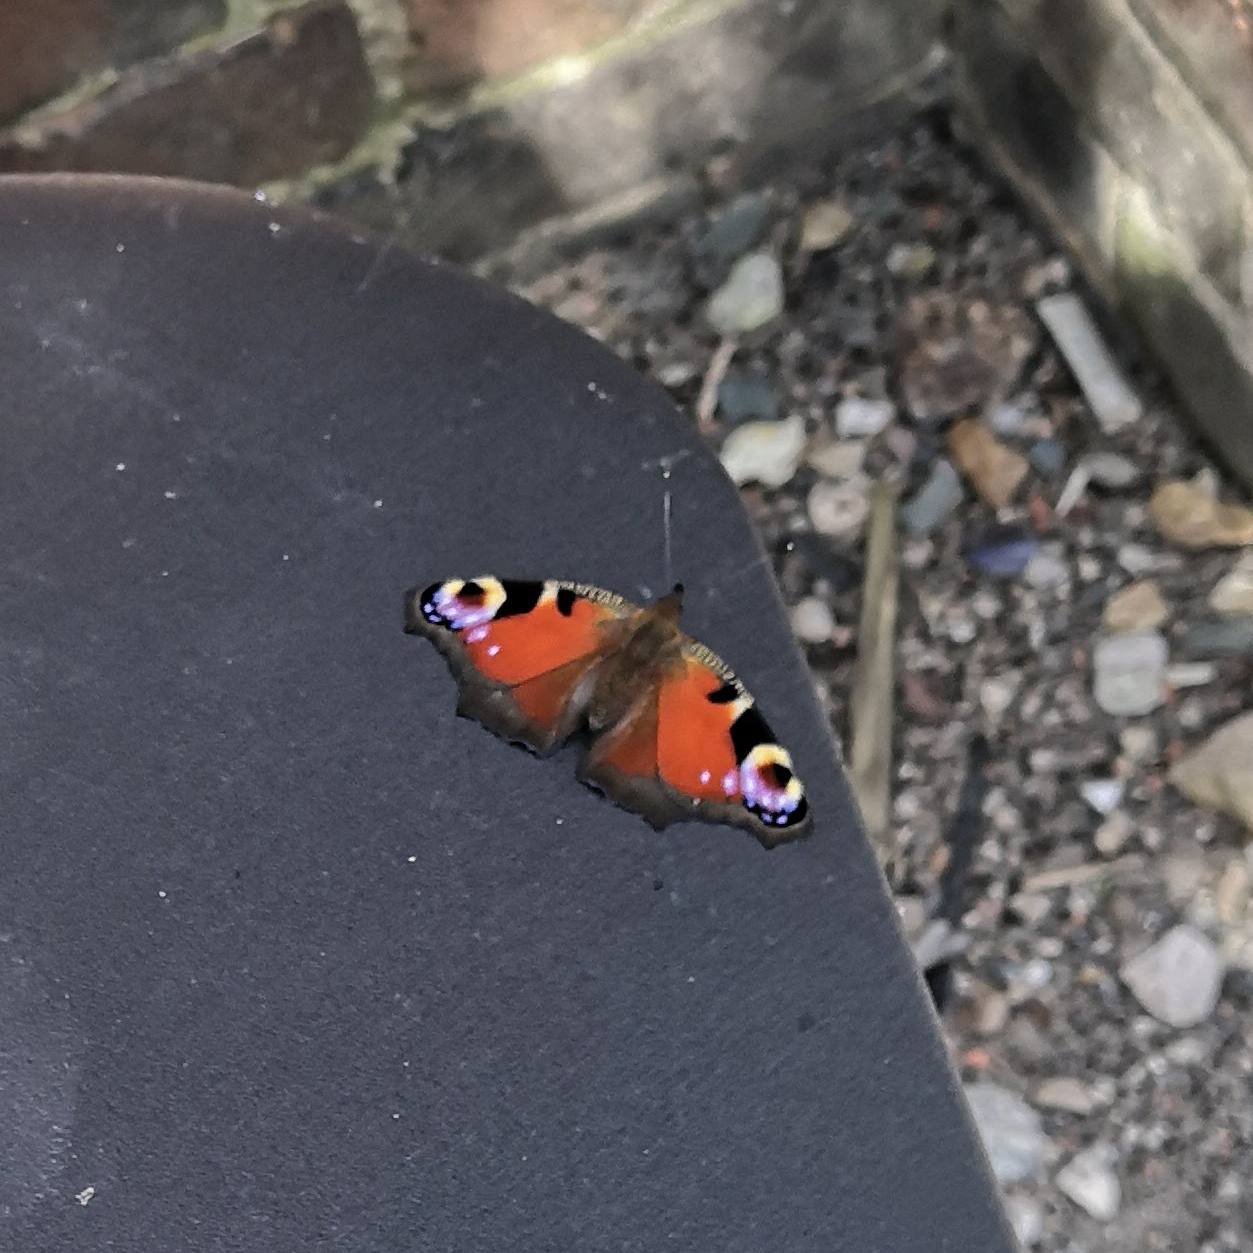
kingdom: Animalia
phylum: Arthropoda
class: Insecta
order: Lepidoptera
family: Nymphalidae
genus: Aglais
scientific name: Aglais io
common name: Peacock
